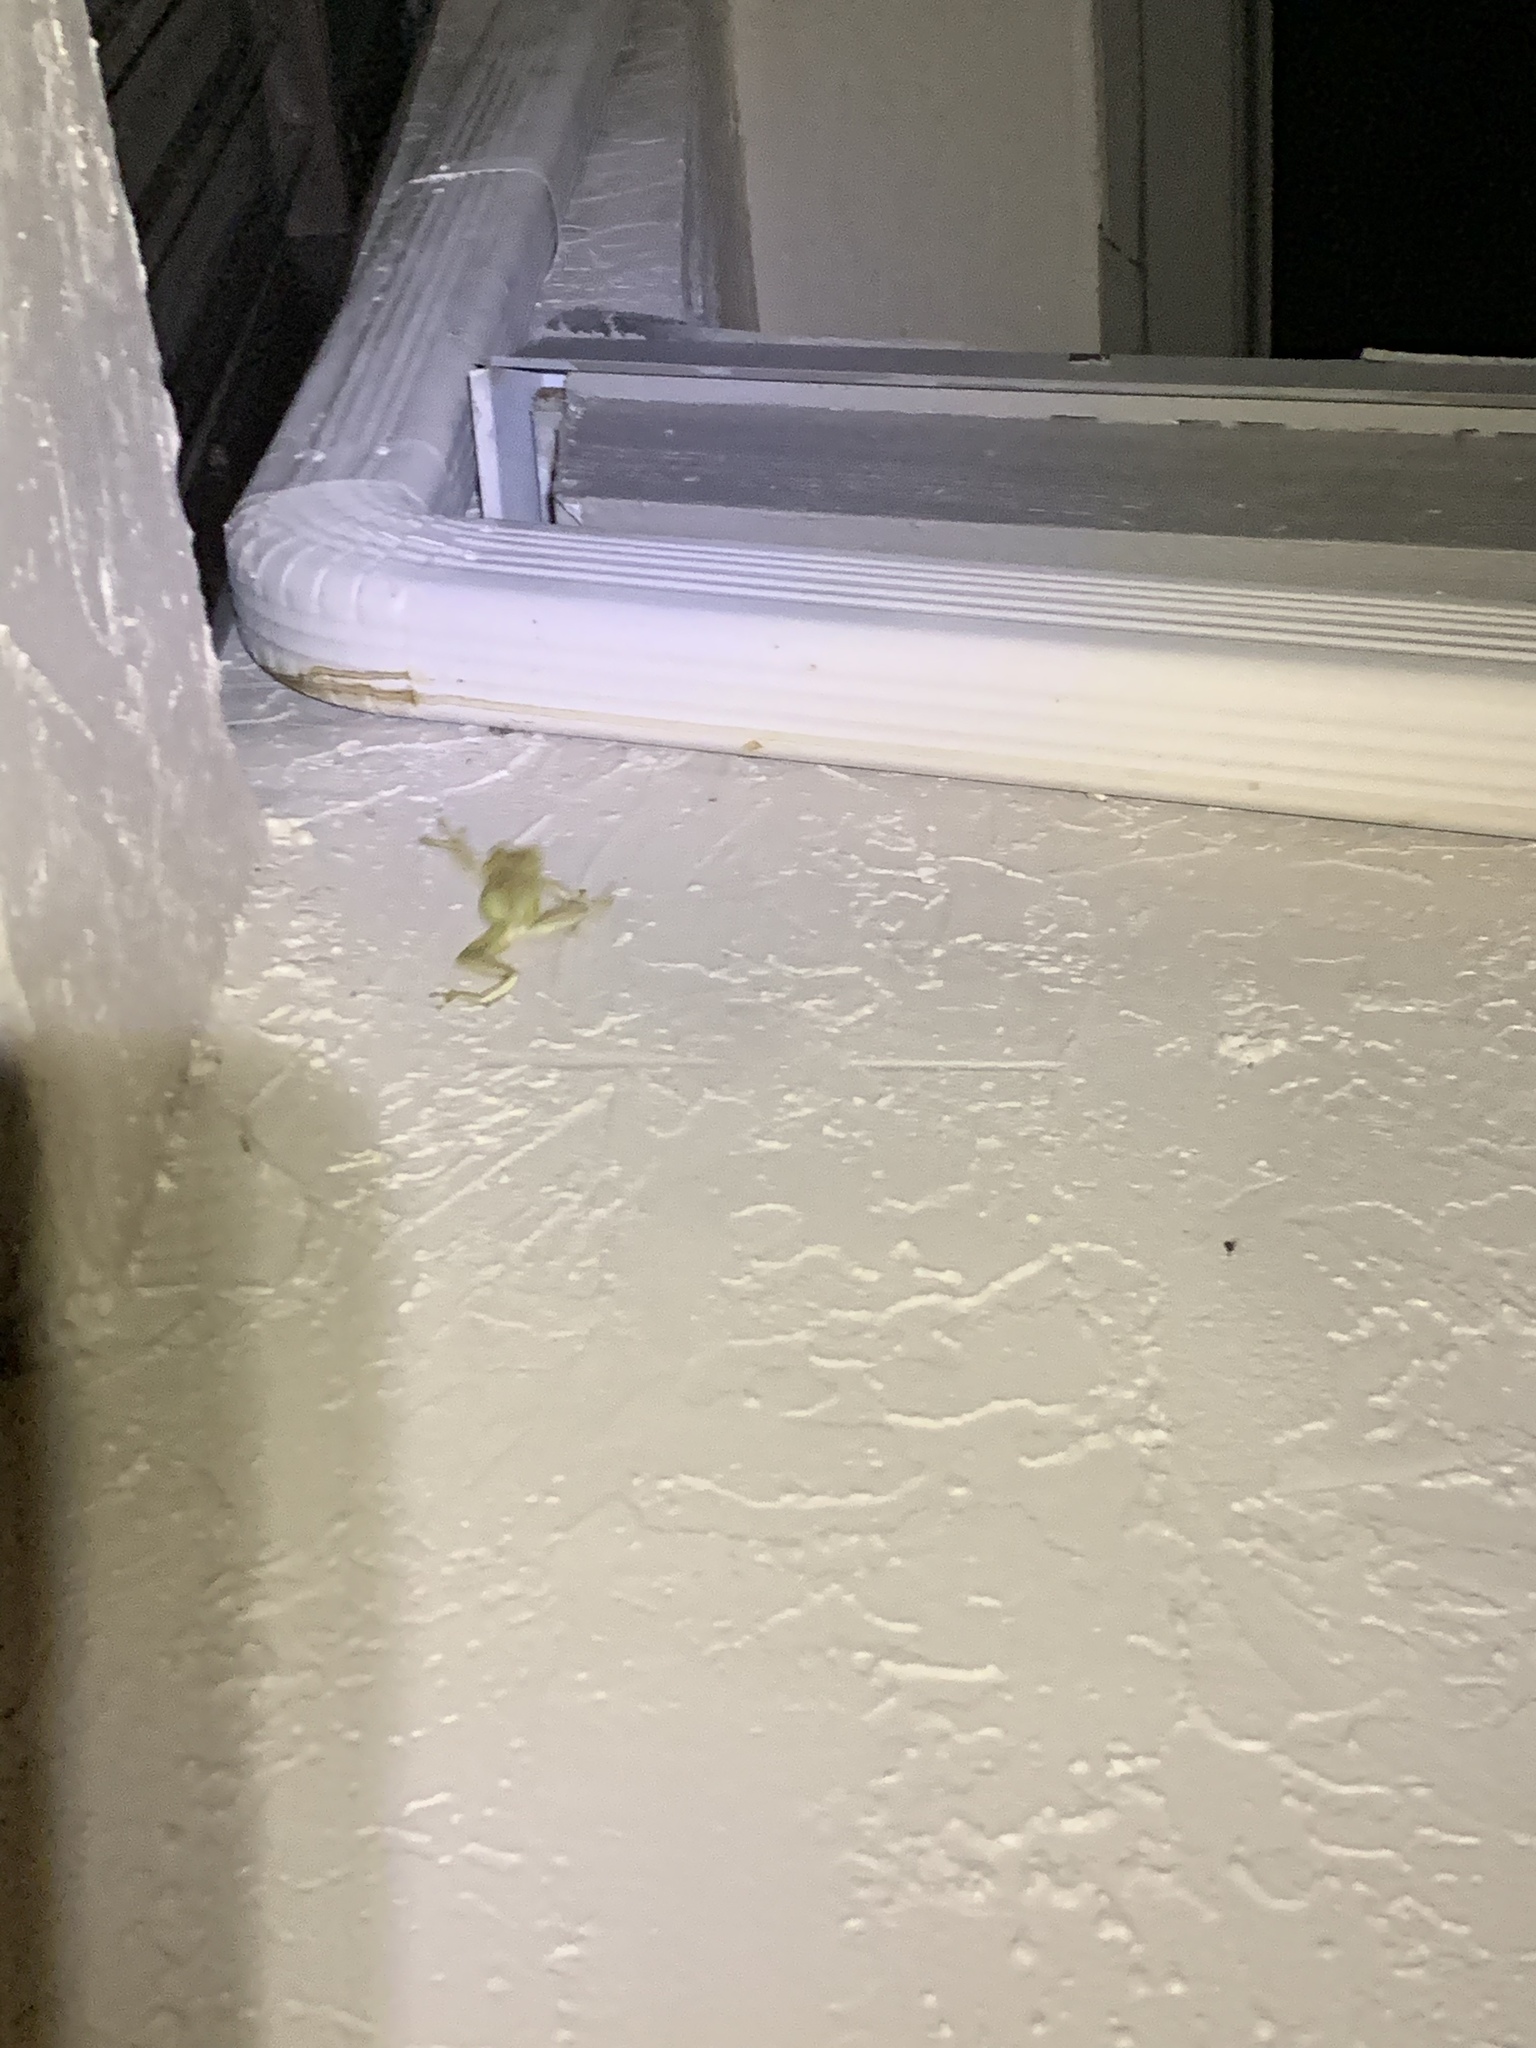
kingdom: Animalia
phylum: Chordata
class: Amphibia
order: Anura
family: Hylidae
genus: Osteopilus
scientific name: Osteopilus septentrionalis
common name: Cuban treefrog
